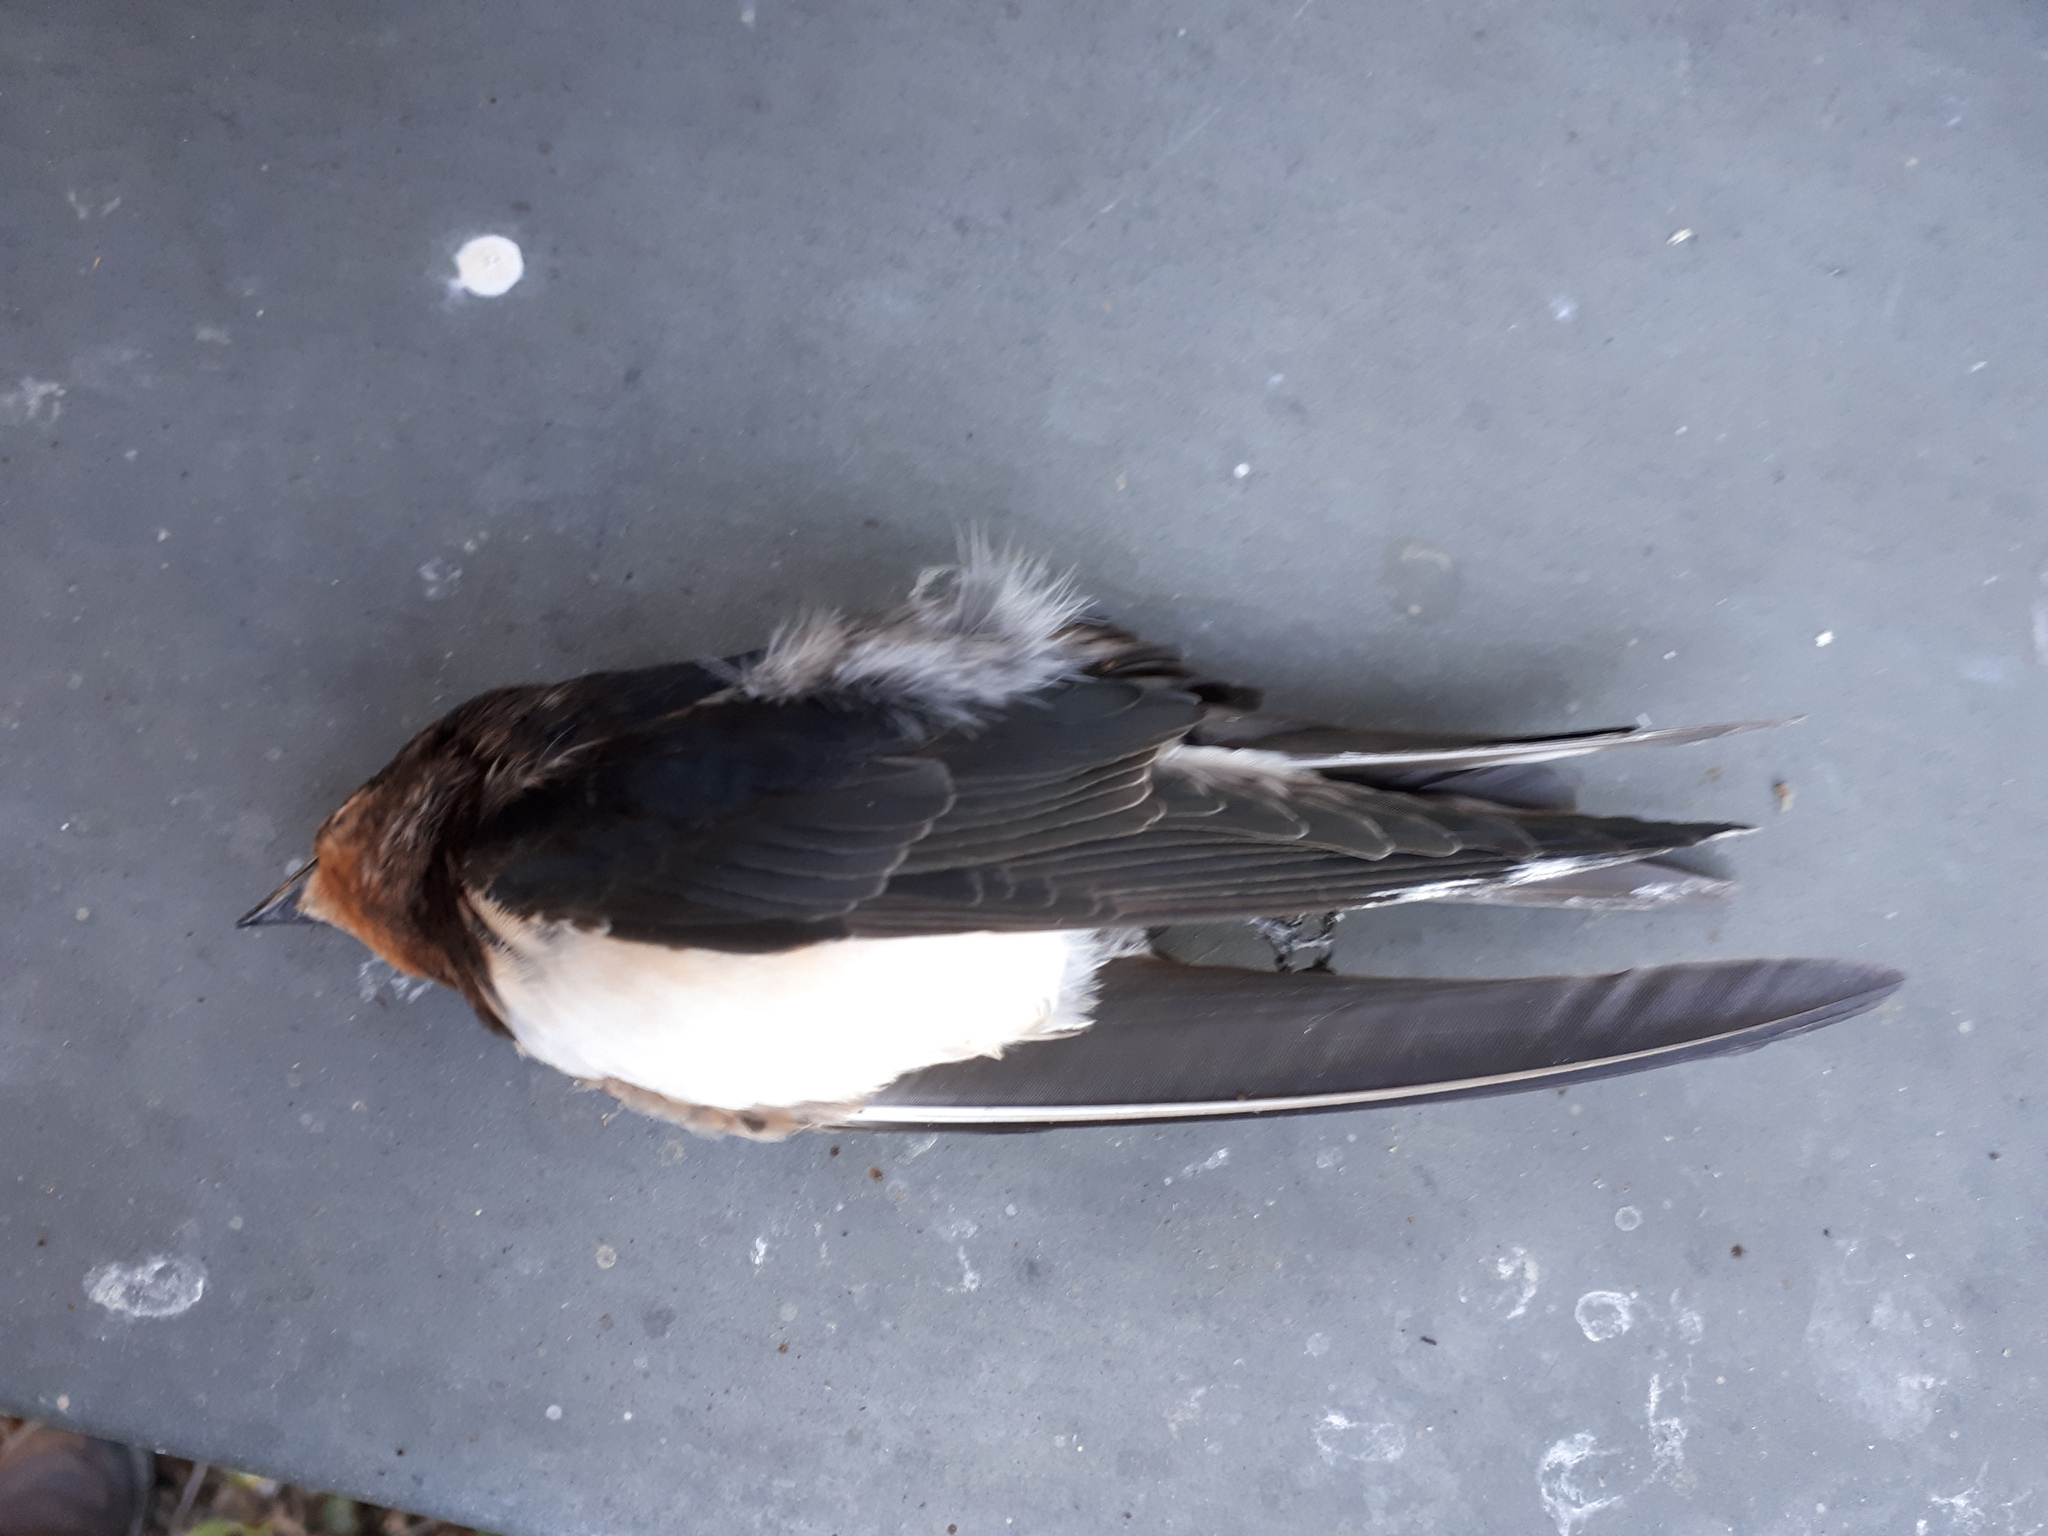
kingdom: Animalia
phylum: Chordata
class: Aves
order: Passeriformes
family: Hirundinidae
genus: Hirundo
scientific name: Hirundo rustica
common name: Barn swallow
